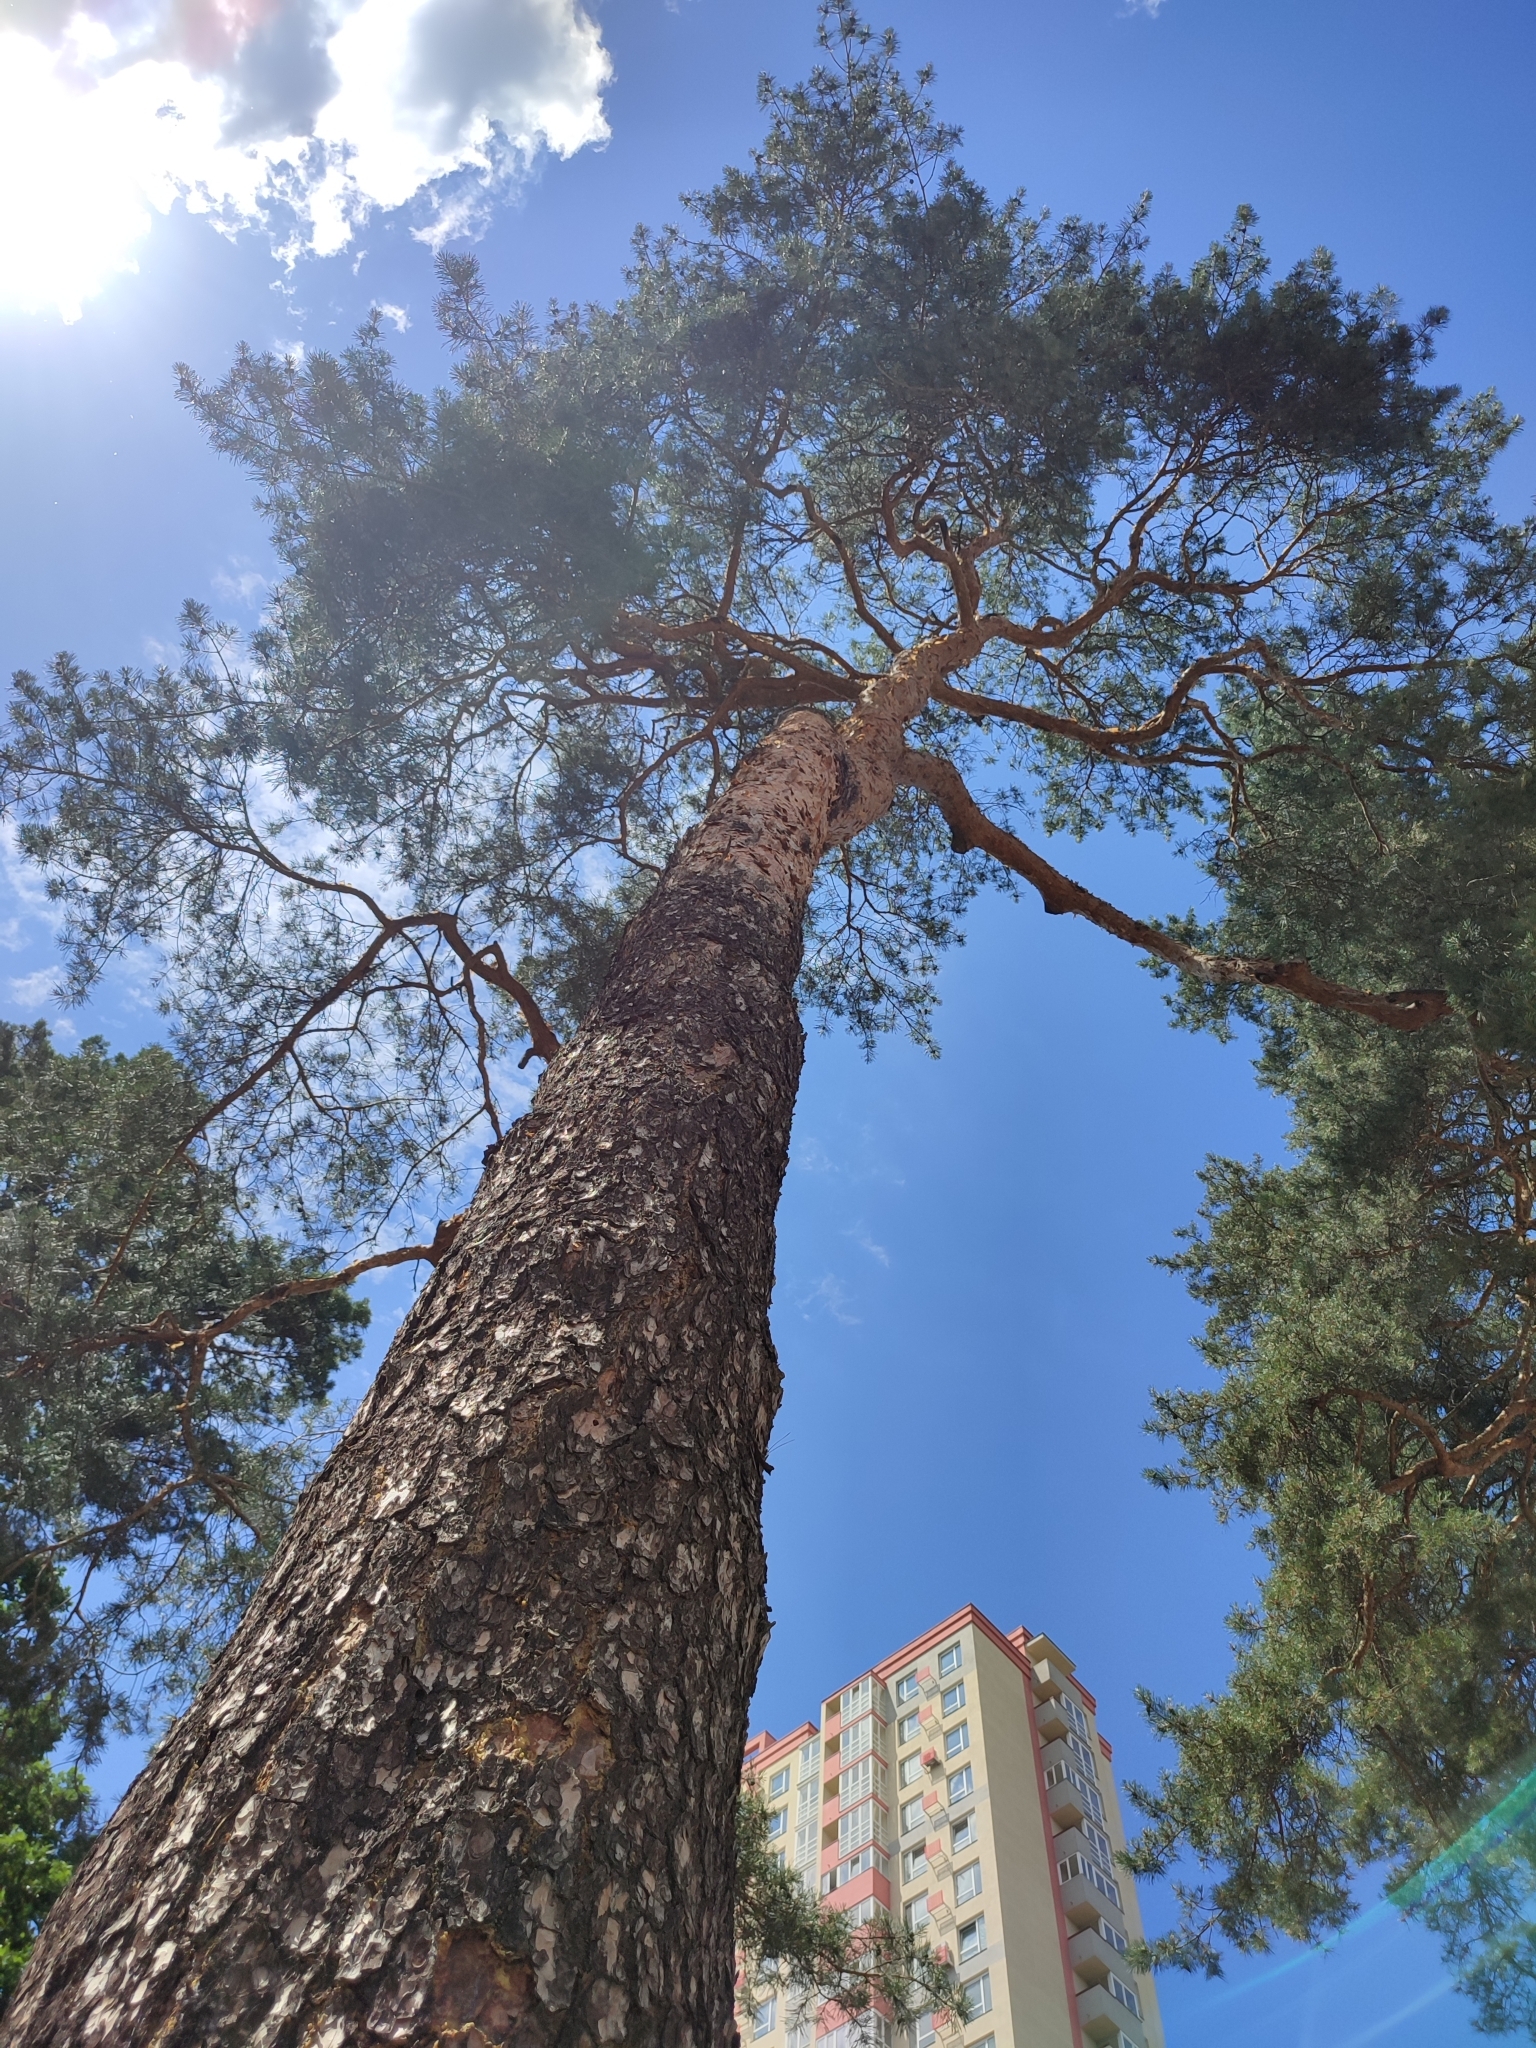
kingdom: Plantae
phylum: Tracheophyta
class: Pinopsida
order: Pinales
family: Pinaceae
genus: Pinus
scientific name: Pinus sylvestris
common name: Scots pine
